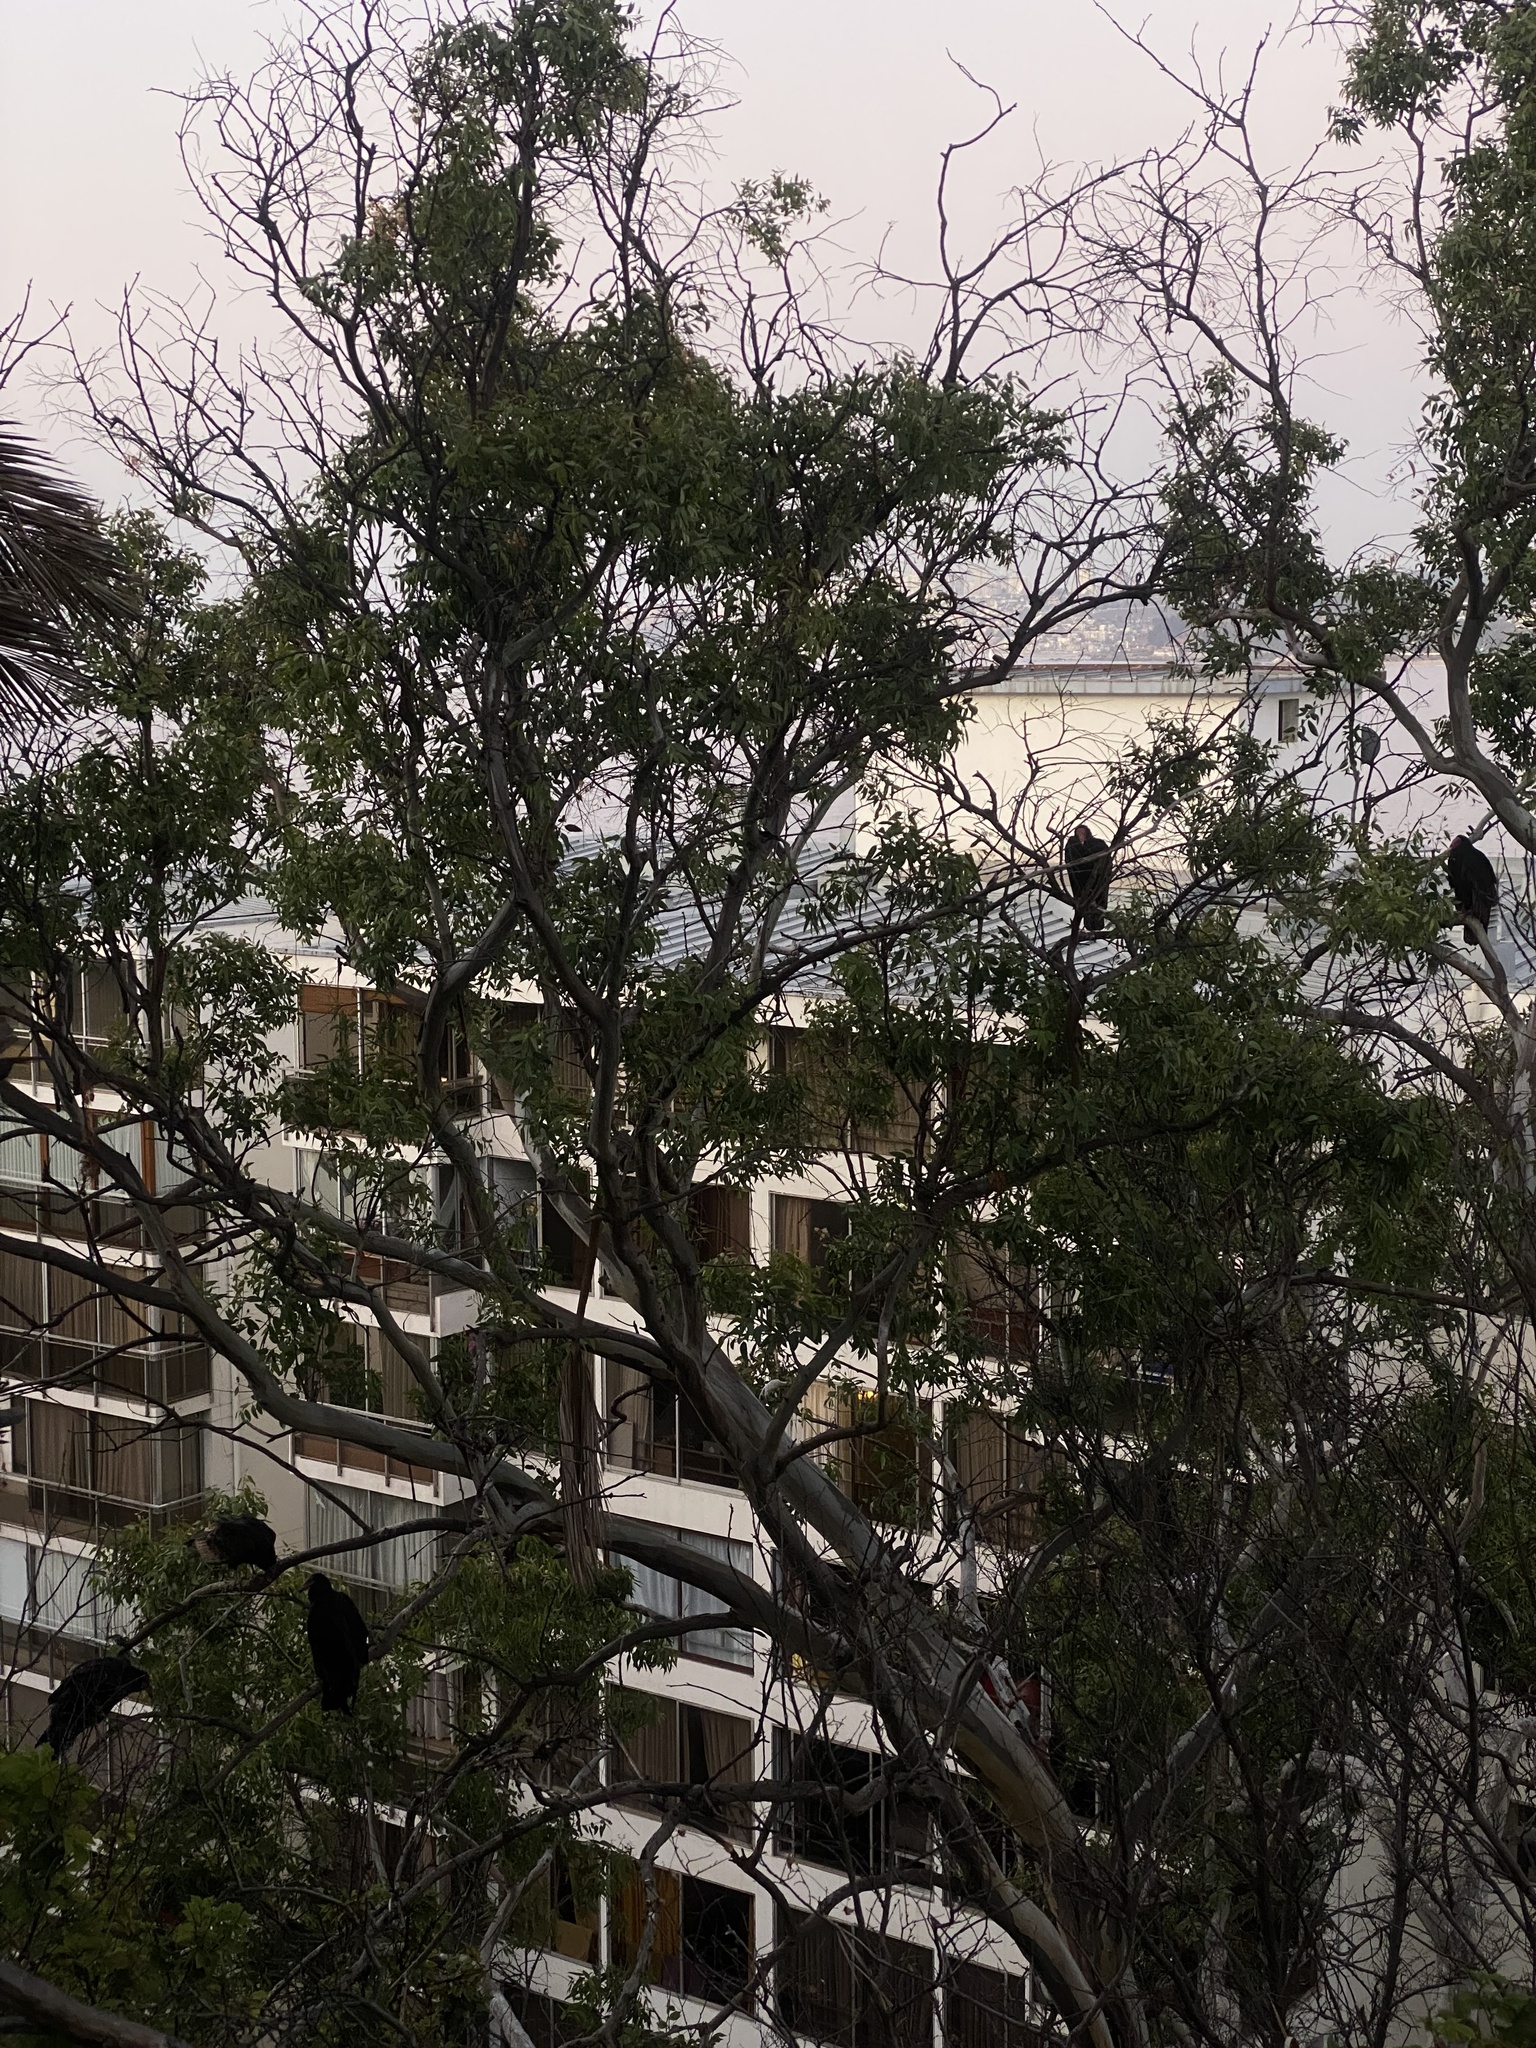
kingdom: Animalia
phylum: Chordata
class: Aves
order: Accipitriformes
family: Cathartidae
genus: Cathartes
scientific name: Cathartes aura
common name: Turkey vulture
